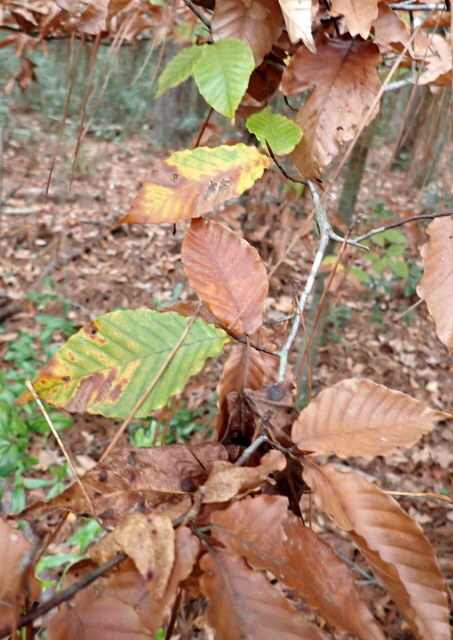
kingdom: Plantae
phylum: Tracheophyta
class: Magnoliopsida
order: Fagales
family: Fagaceae
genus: Fagus
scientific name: Fagus grandifolia
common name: American beech
